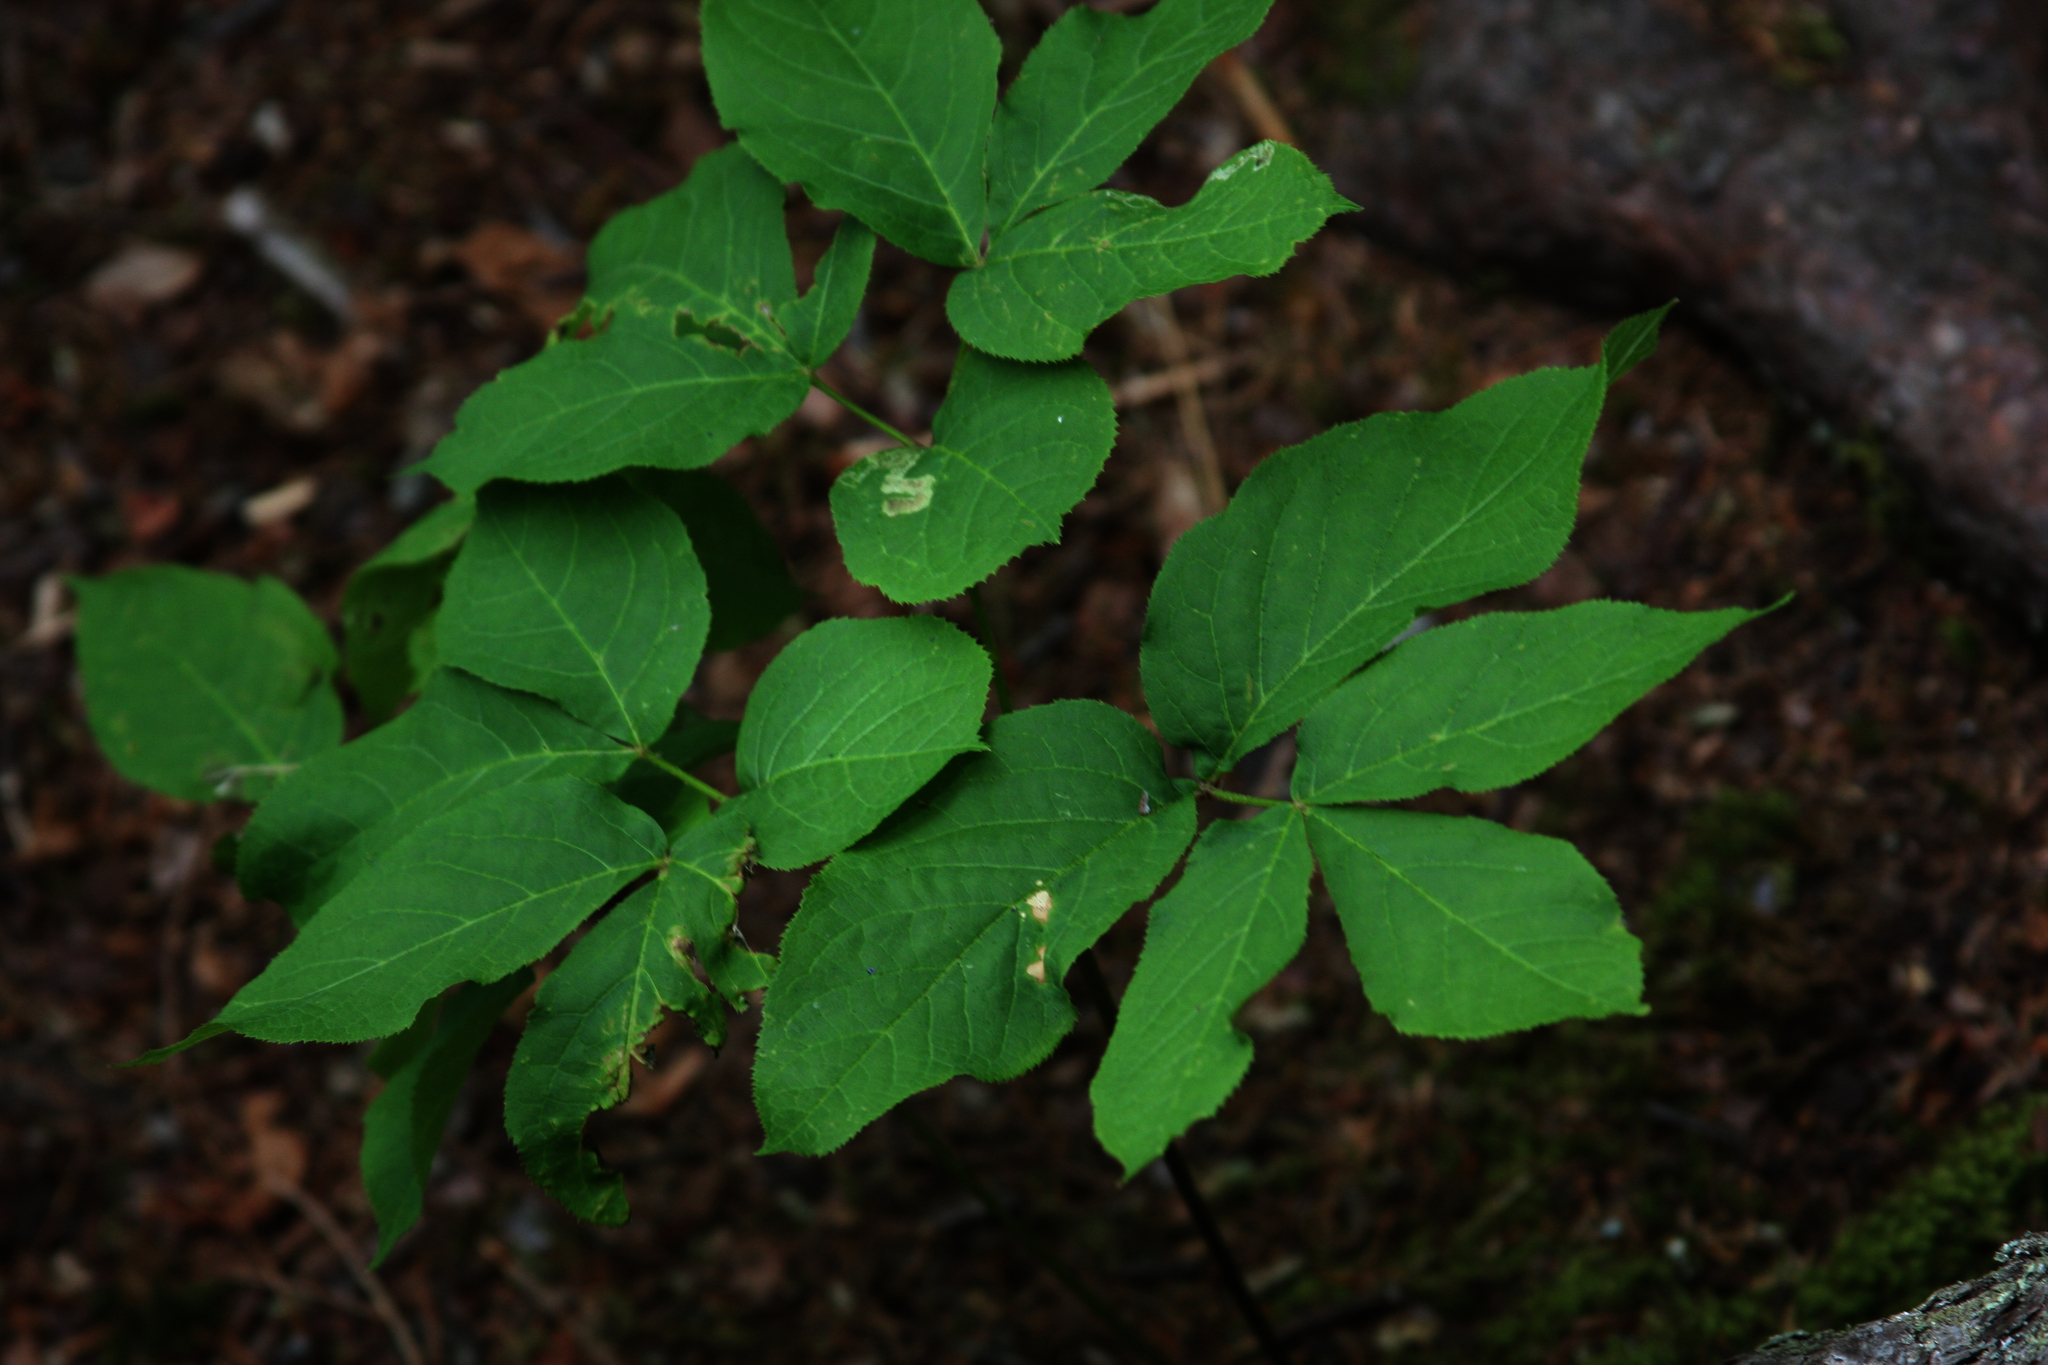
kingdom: Plantae
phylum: Tracheophyta
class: Magnoliopsida
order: Apiales
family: Araliaceae
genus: Aralia
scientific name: Aralia nudicaulis
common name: Wild sarsaparilla
